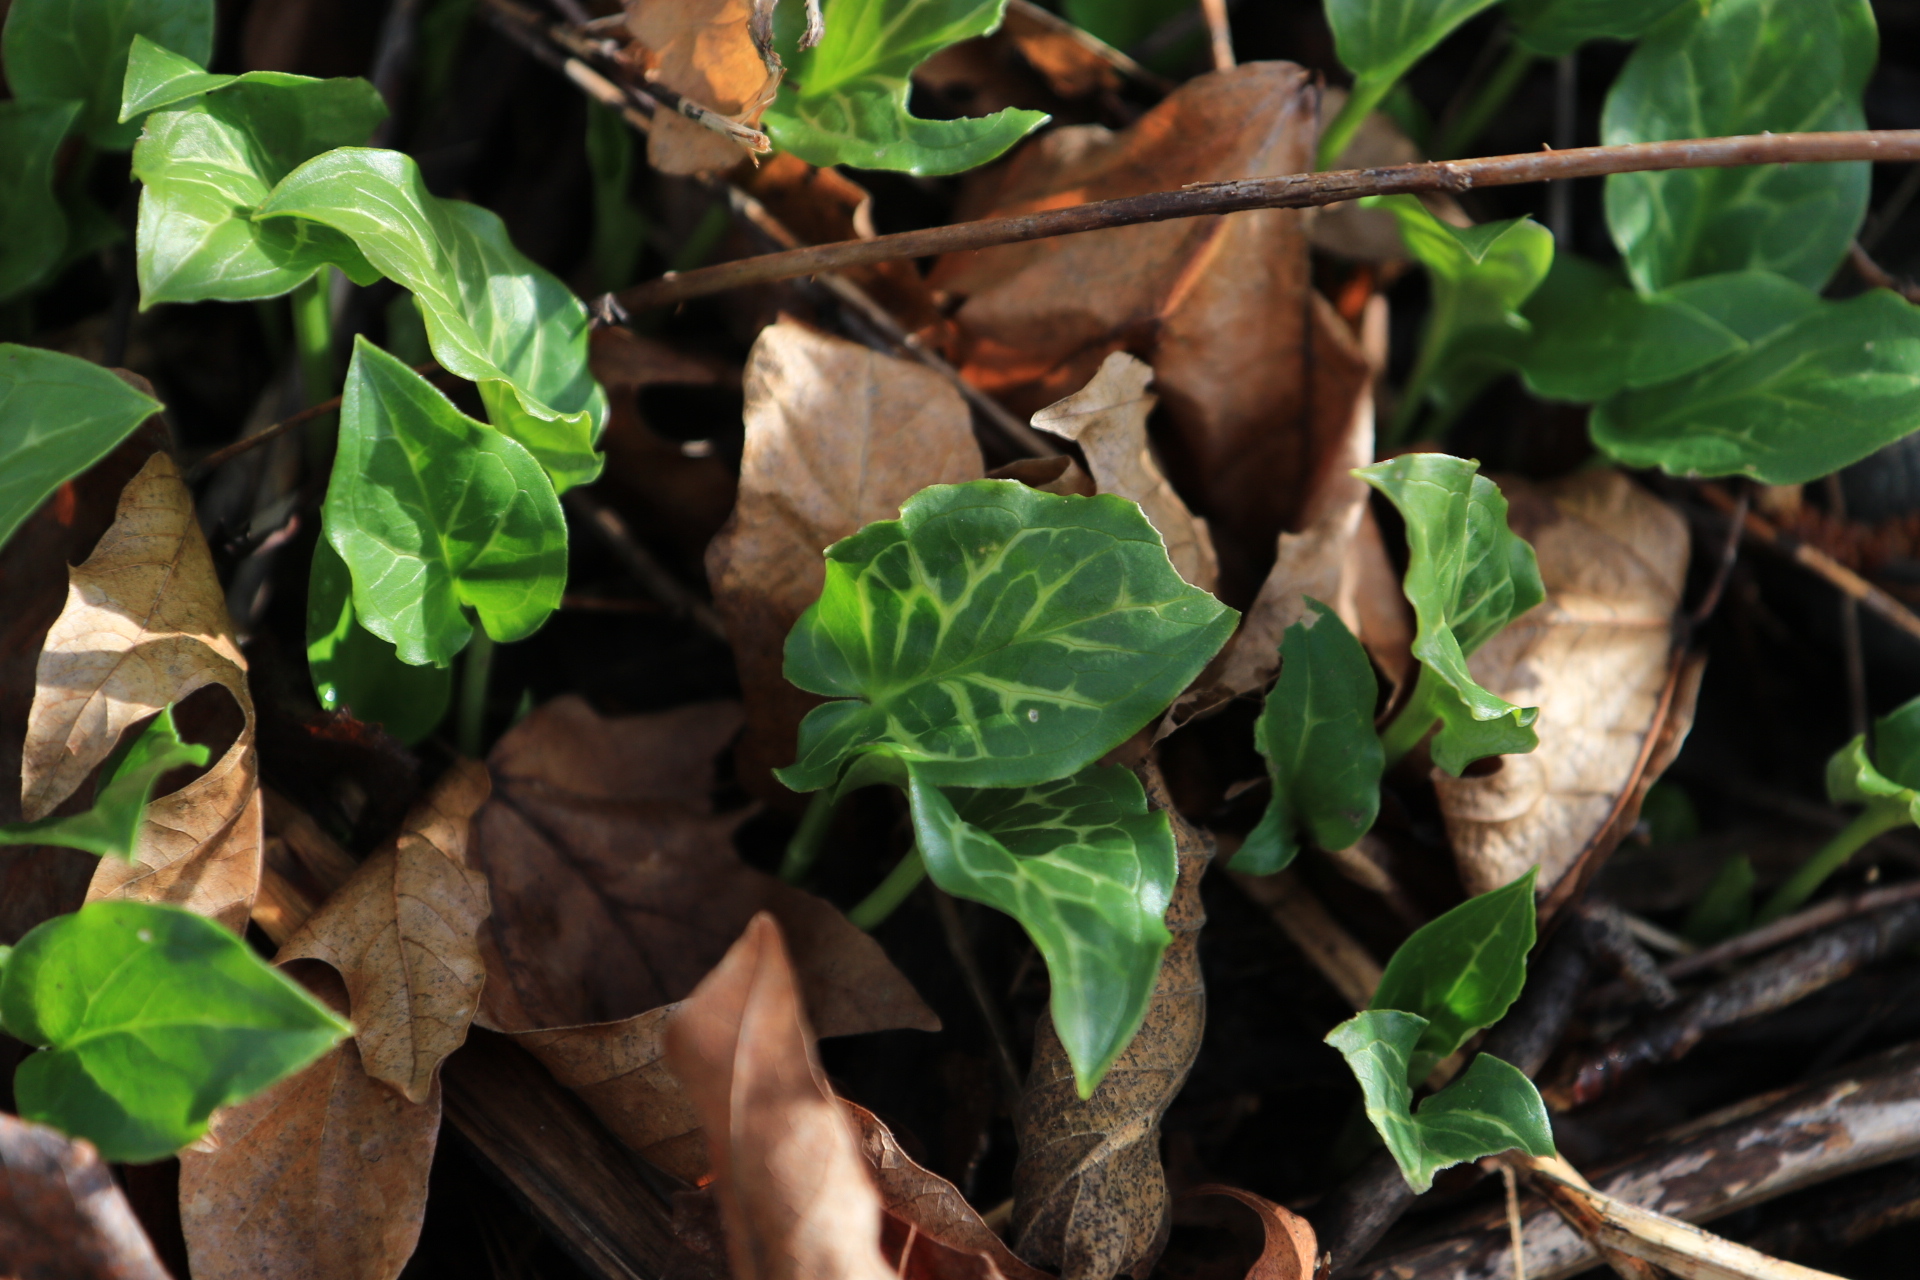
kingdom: Plantae
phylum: Tracheophyta
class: Liliopsida
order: Alismatales
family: Araceae
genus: Arum
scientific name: Arum italicum
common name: Italian lords-and-ladies
